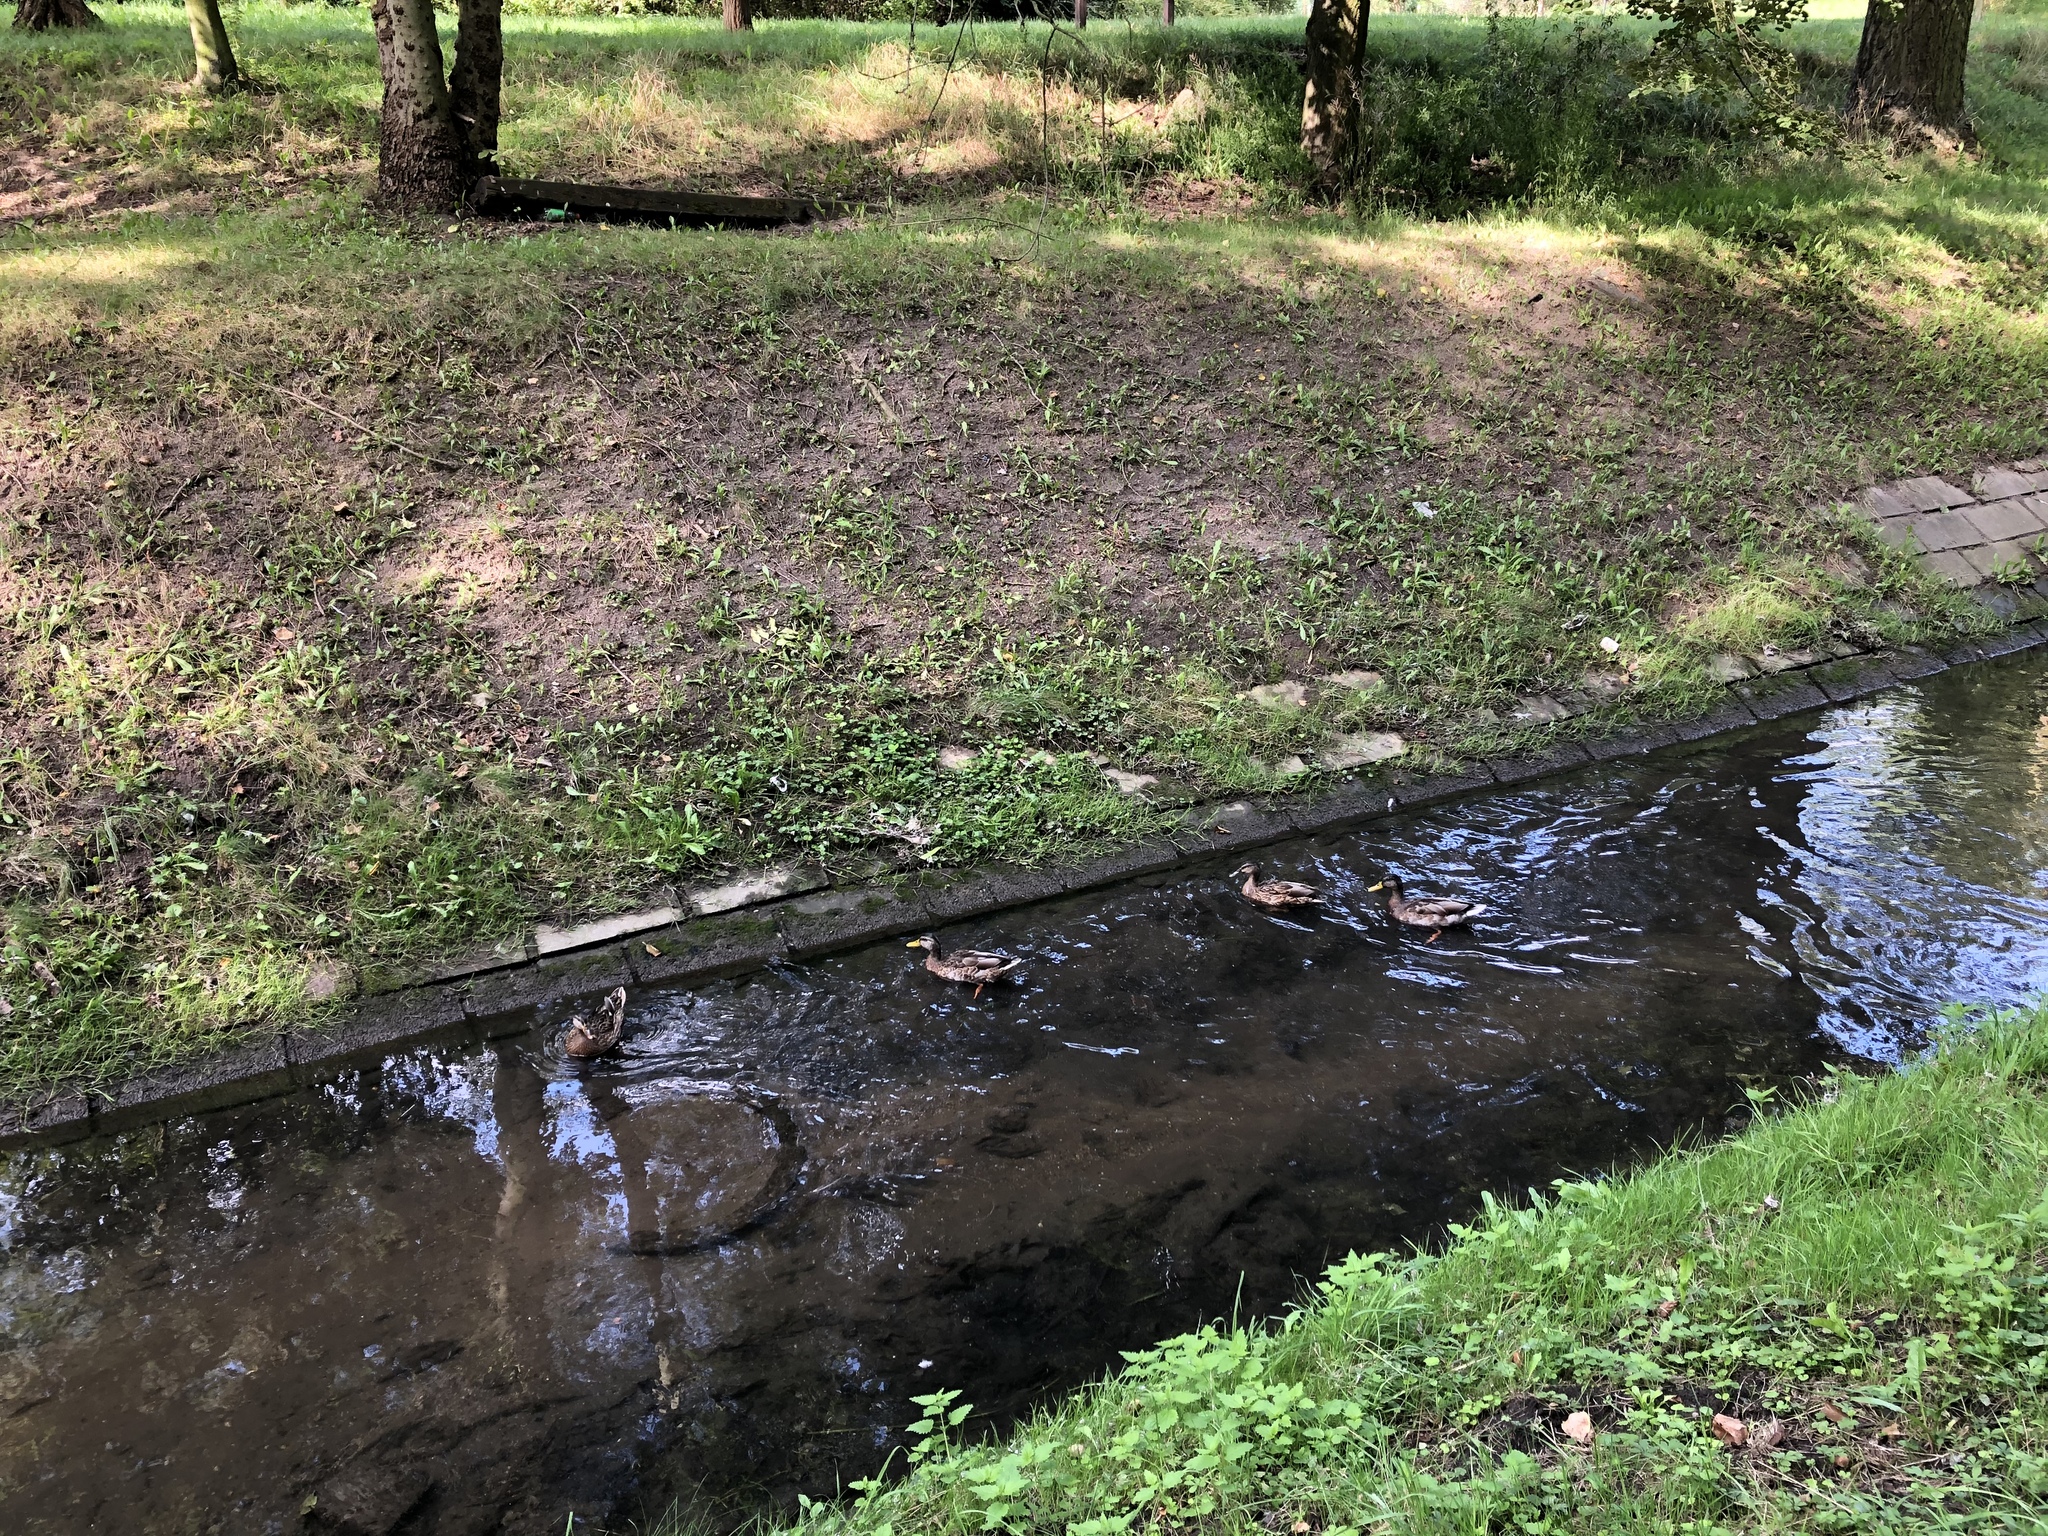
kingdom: Animalia
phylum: Chordata
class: Aves
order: Anseriformes
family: Anatidae
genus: Anas
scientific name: Anas platyrhynchos
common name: Mallard
